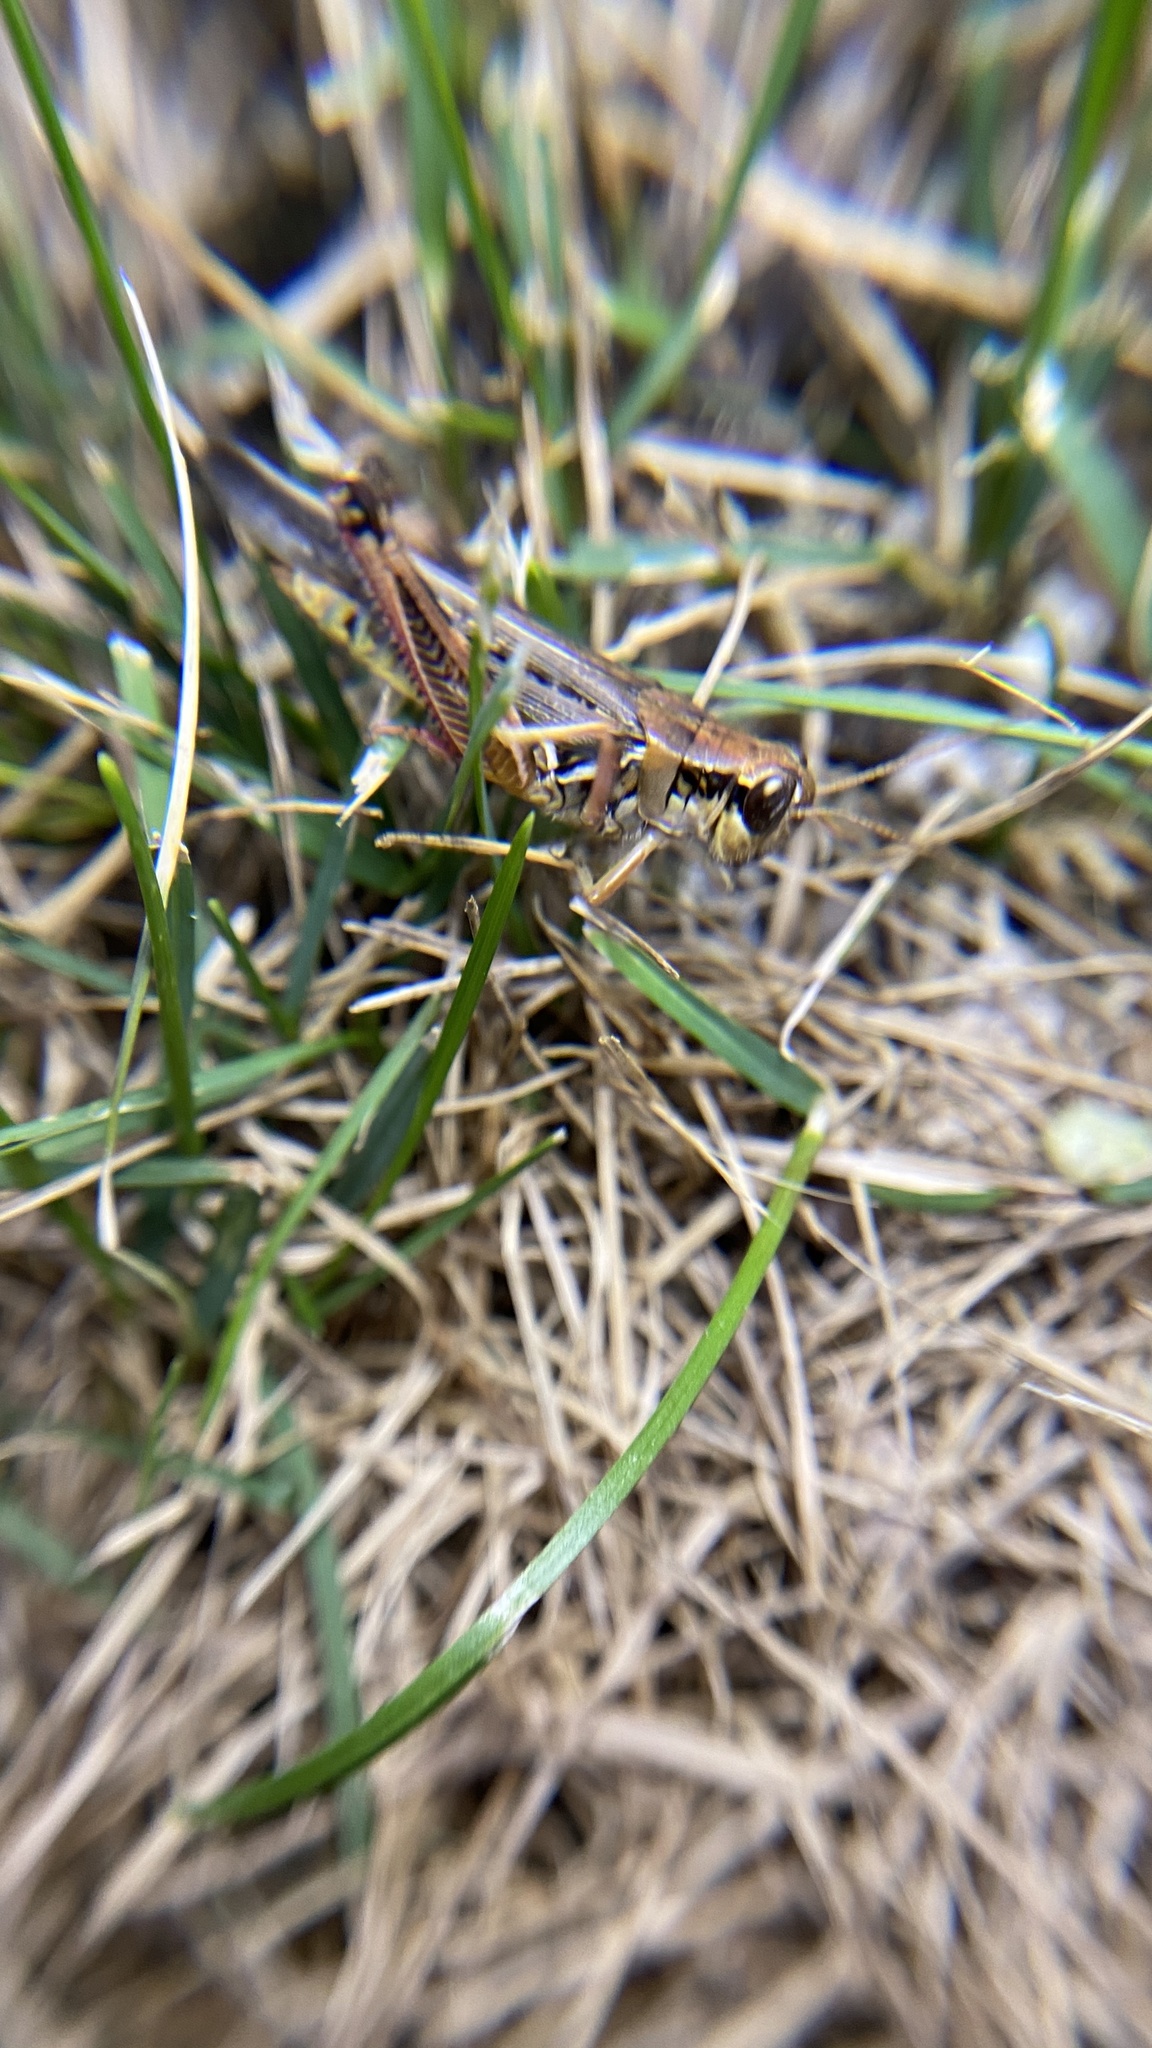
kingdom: Animalia
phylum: Arthropoda
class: Insecta
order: Orthoptera
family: Acrididae
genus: Melanoplus
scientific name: Melanoplus femurrubrum
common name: Red-legged grasshopper
